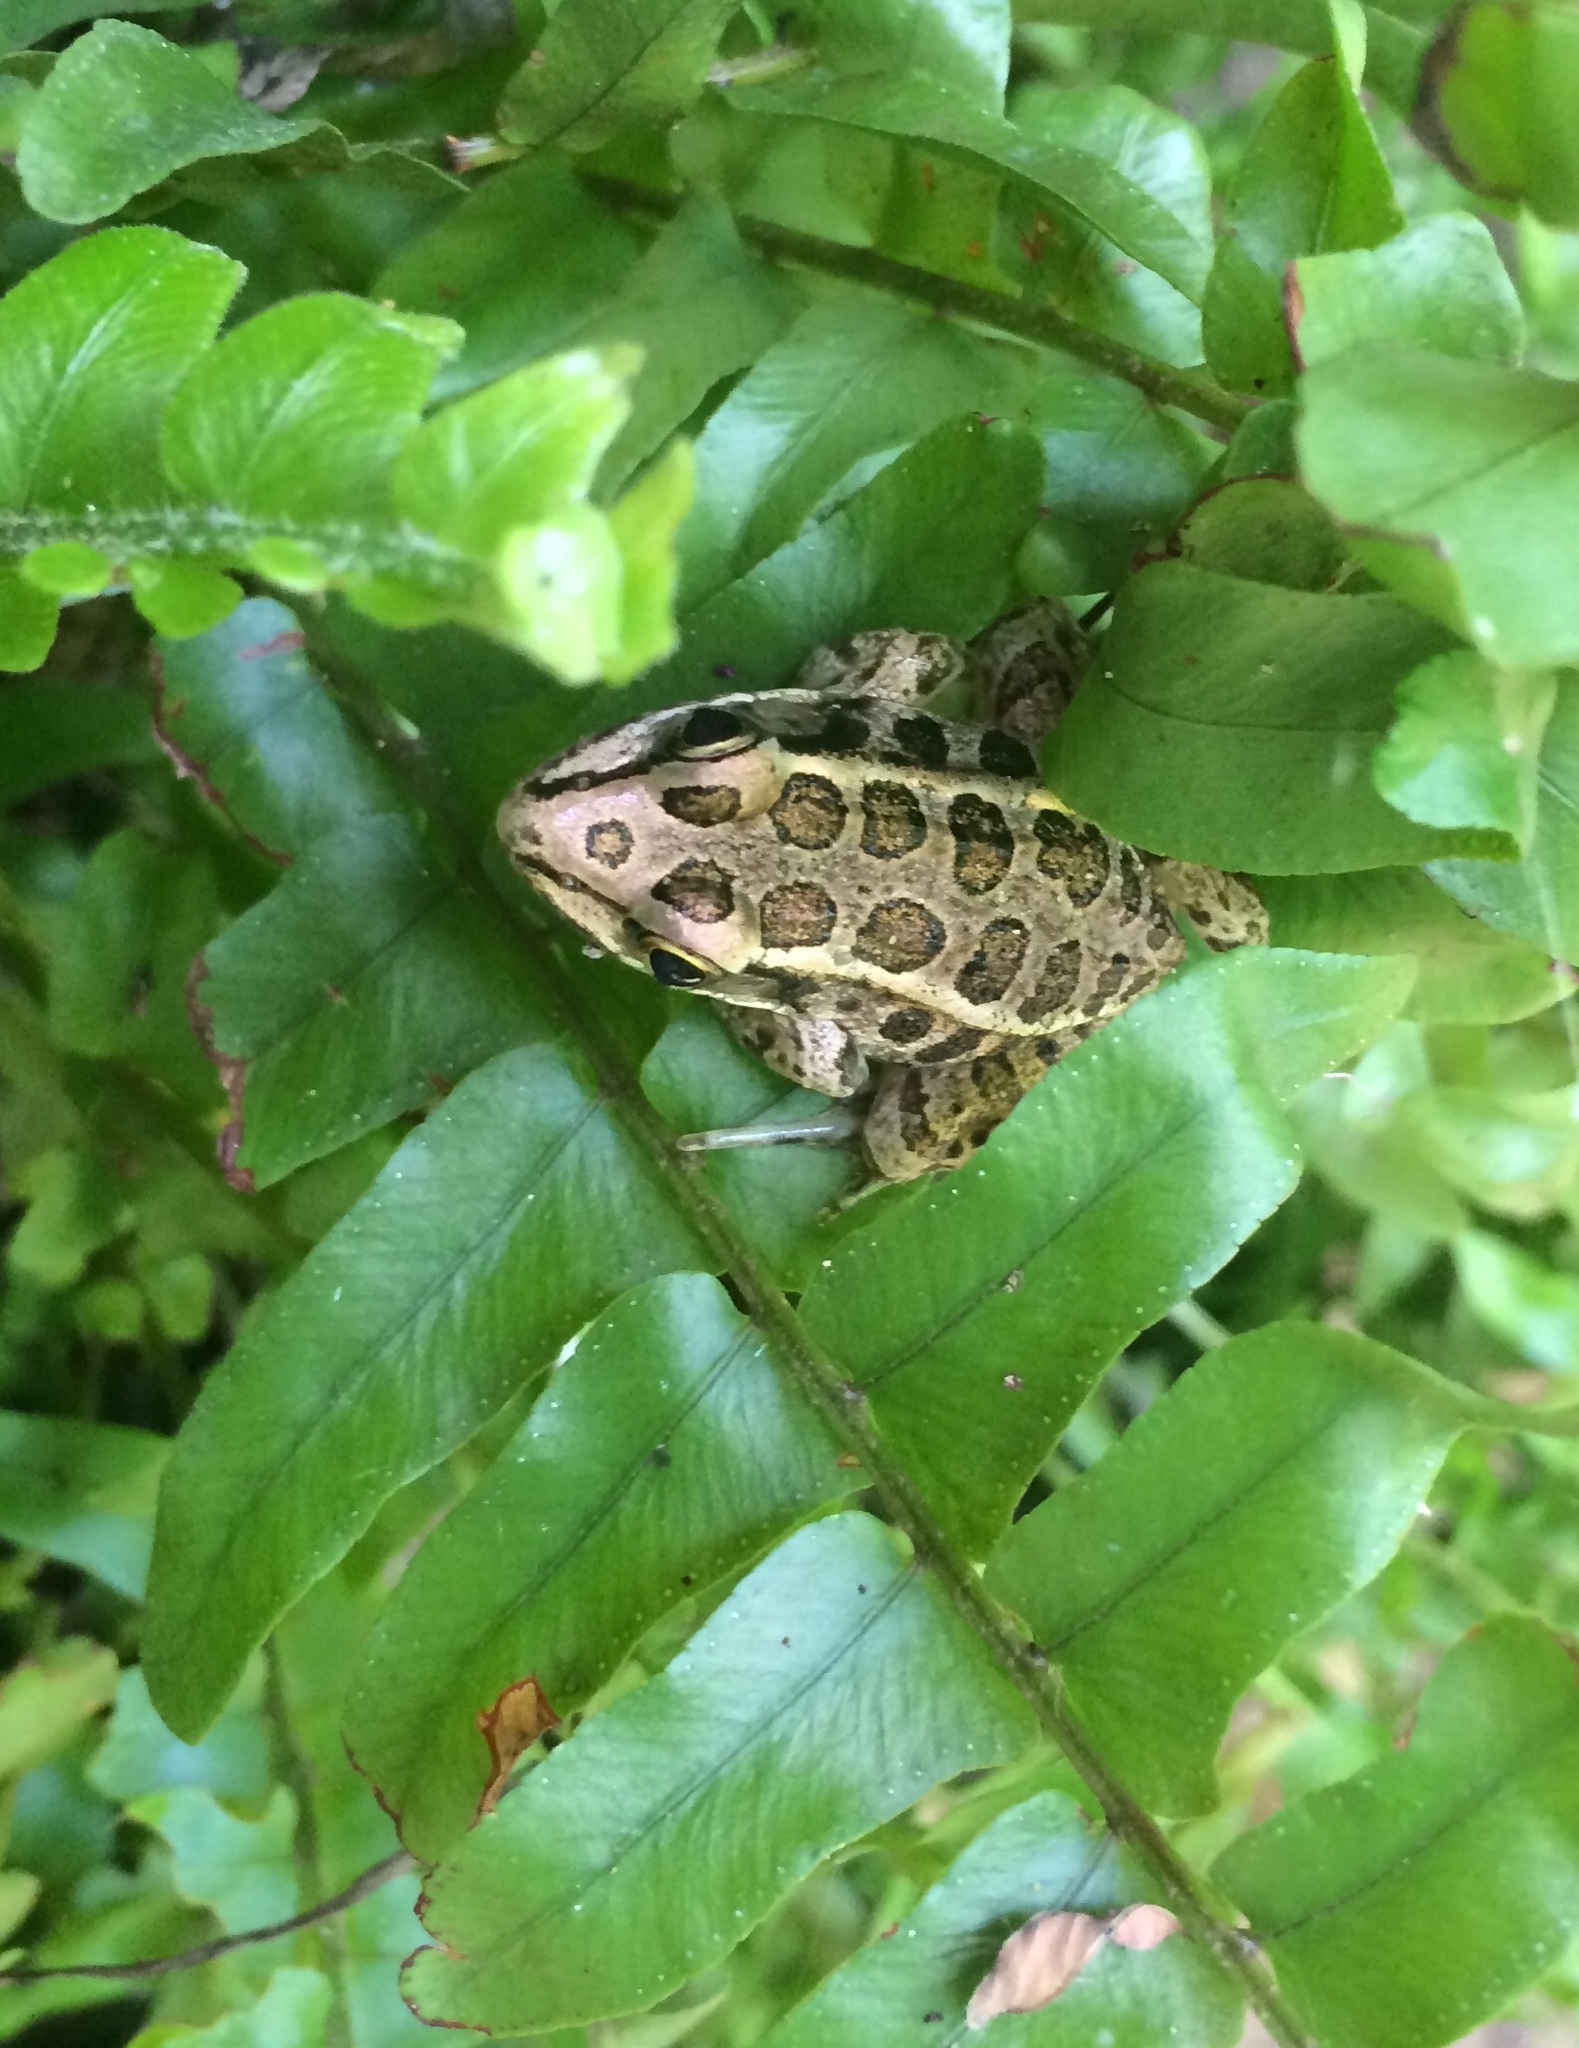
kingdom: Animalia
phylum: Chordata
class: Amphibia
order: Anura
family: Ranidae
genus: Lithobates
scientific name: Lithobates palustris
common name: Pickerel frog
